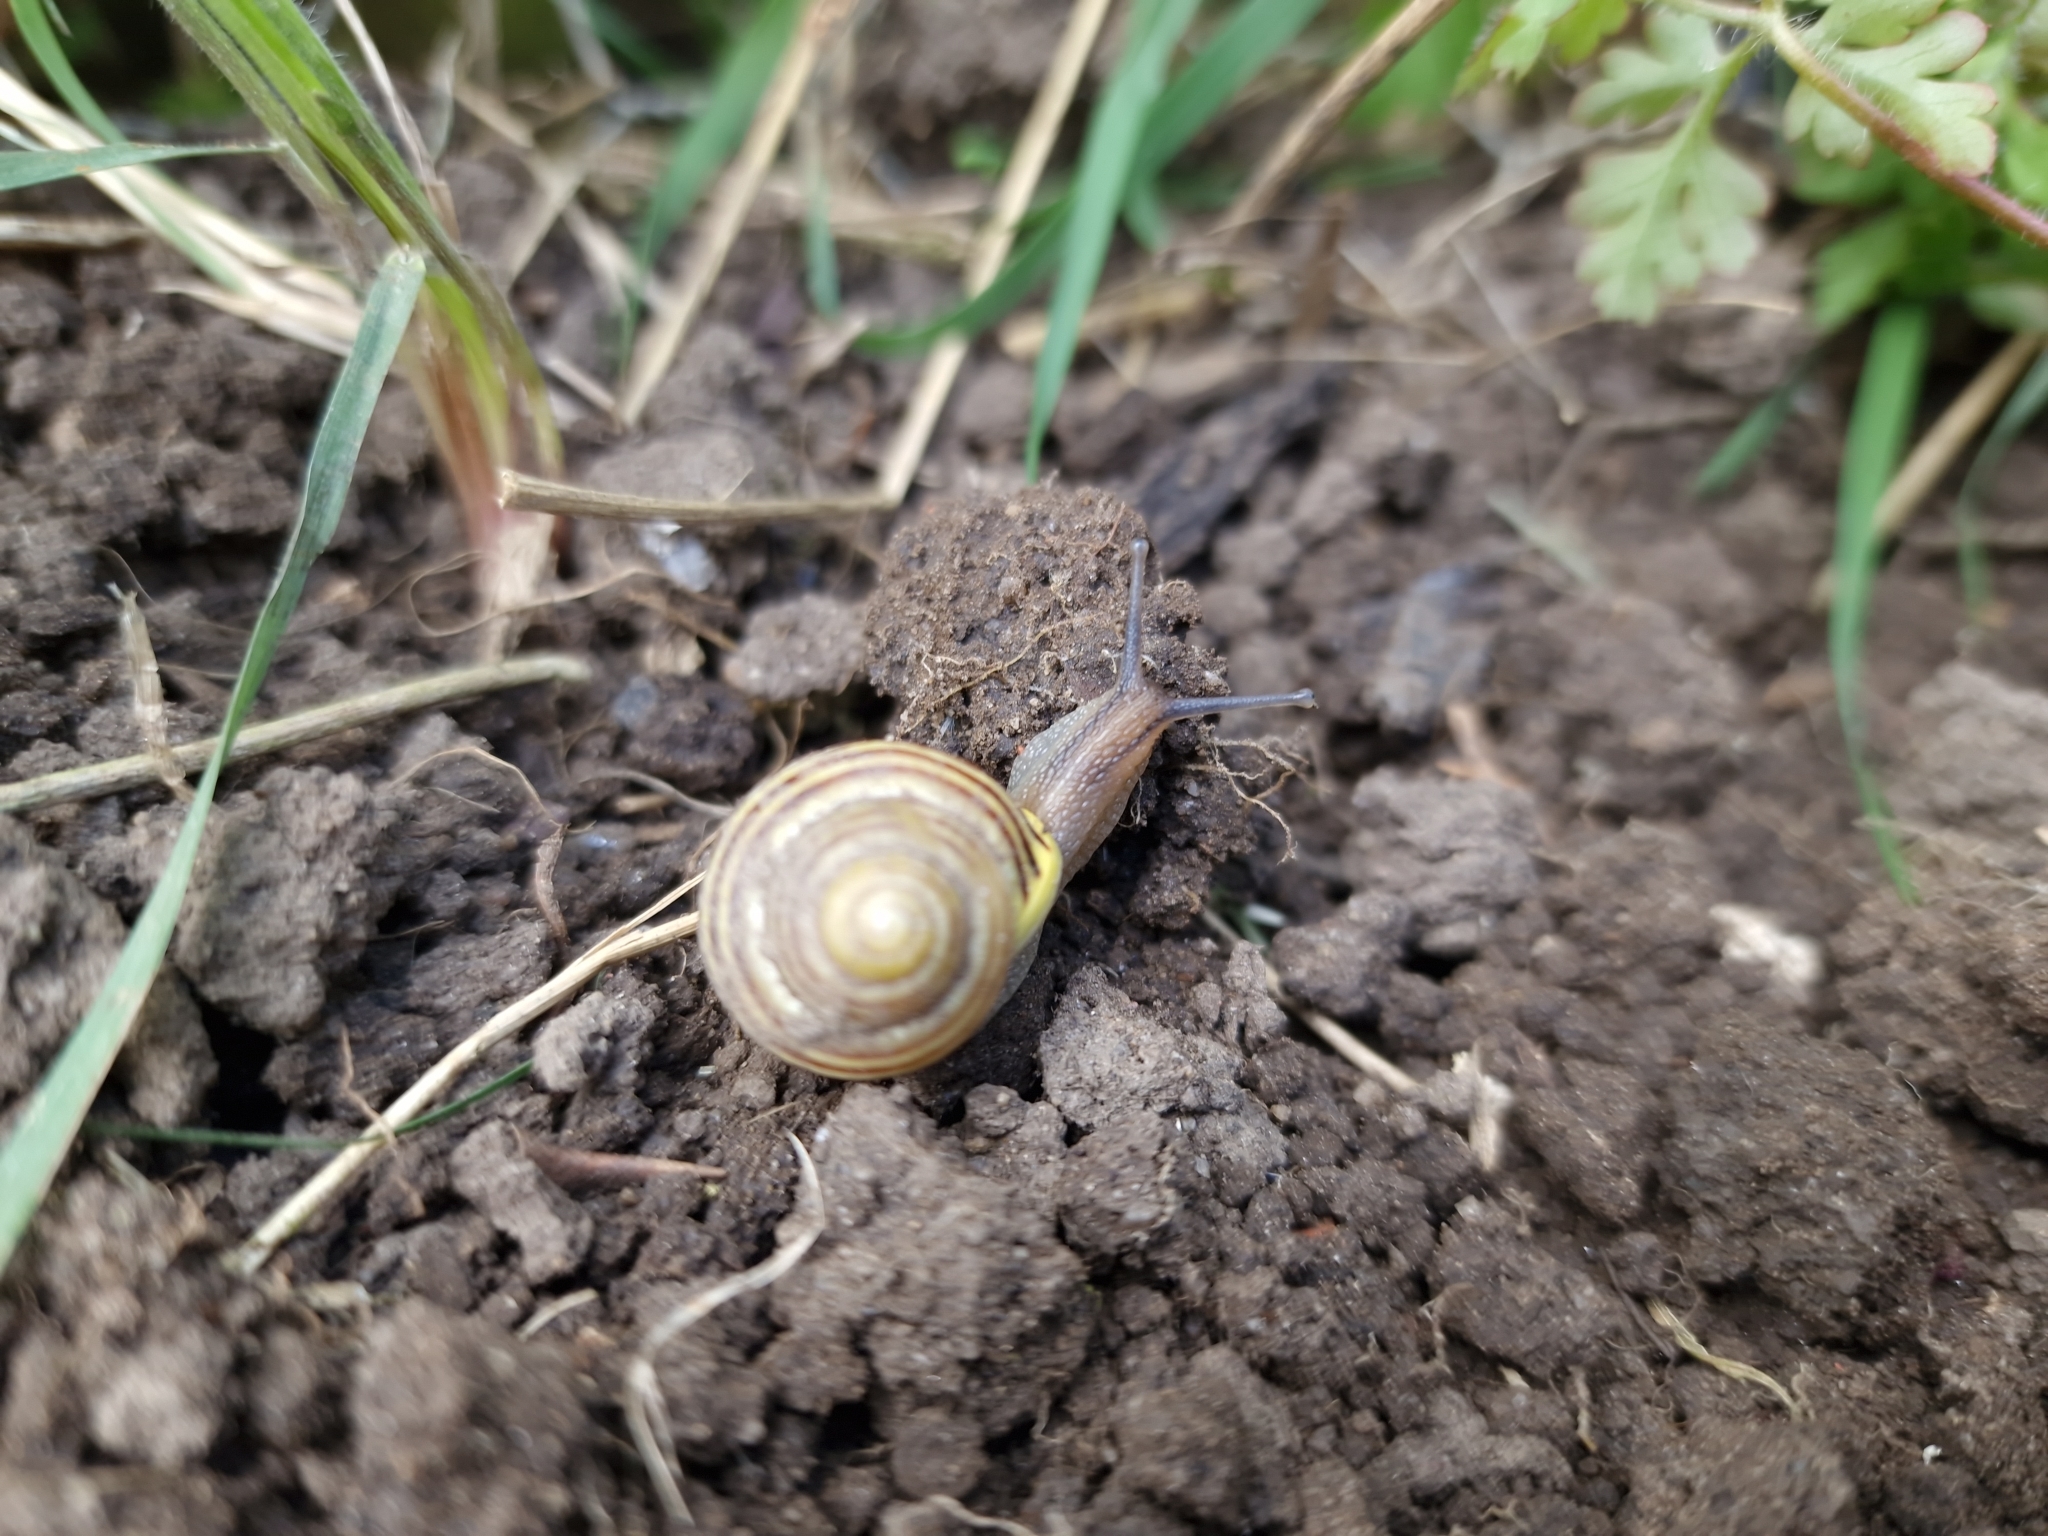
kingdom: Animalia
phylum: Mollusca
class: Gastropoda
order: Stylommatophora
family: Helicidae
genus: Cepaea
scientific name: Cepaea hortensis
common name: White-lip gardensnail
